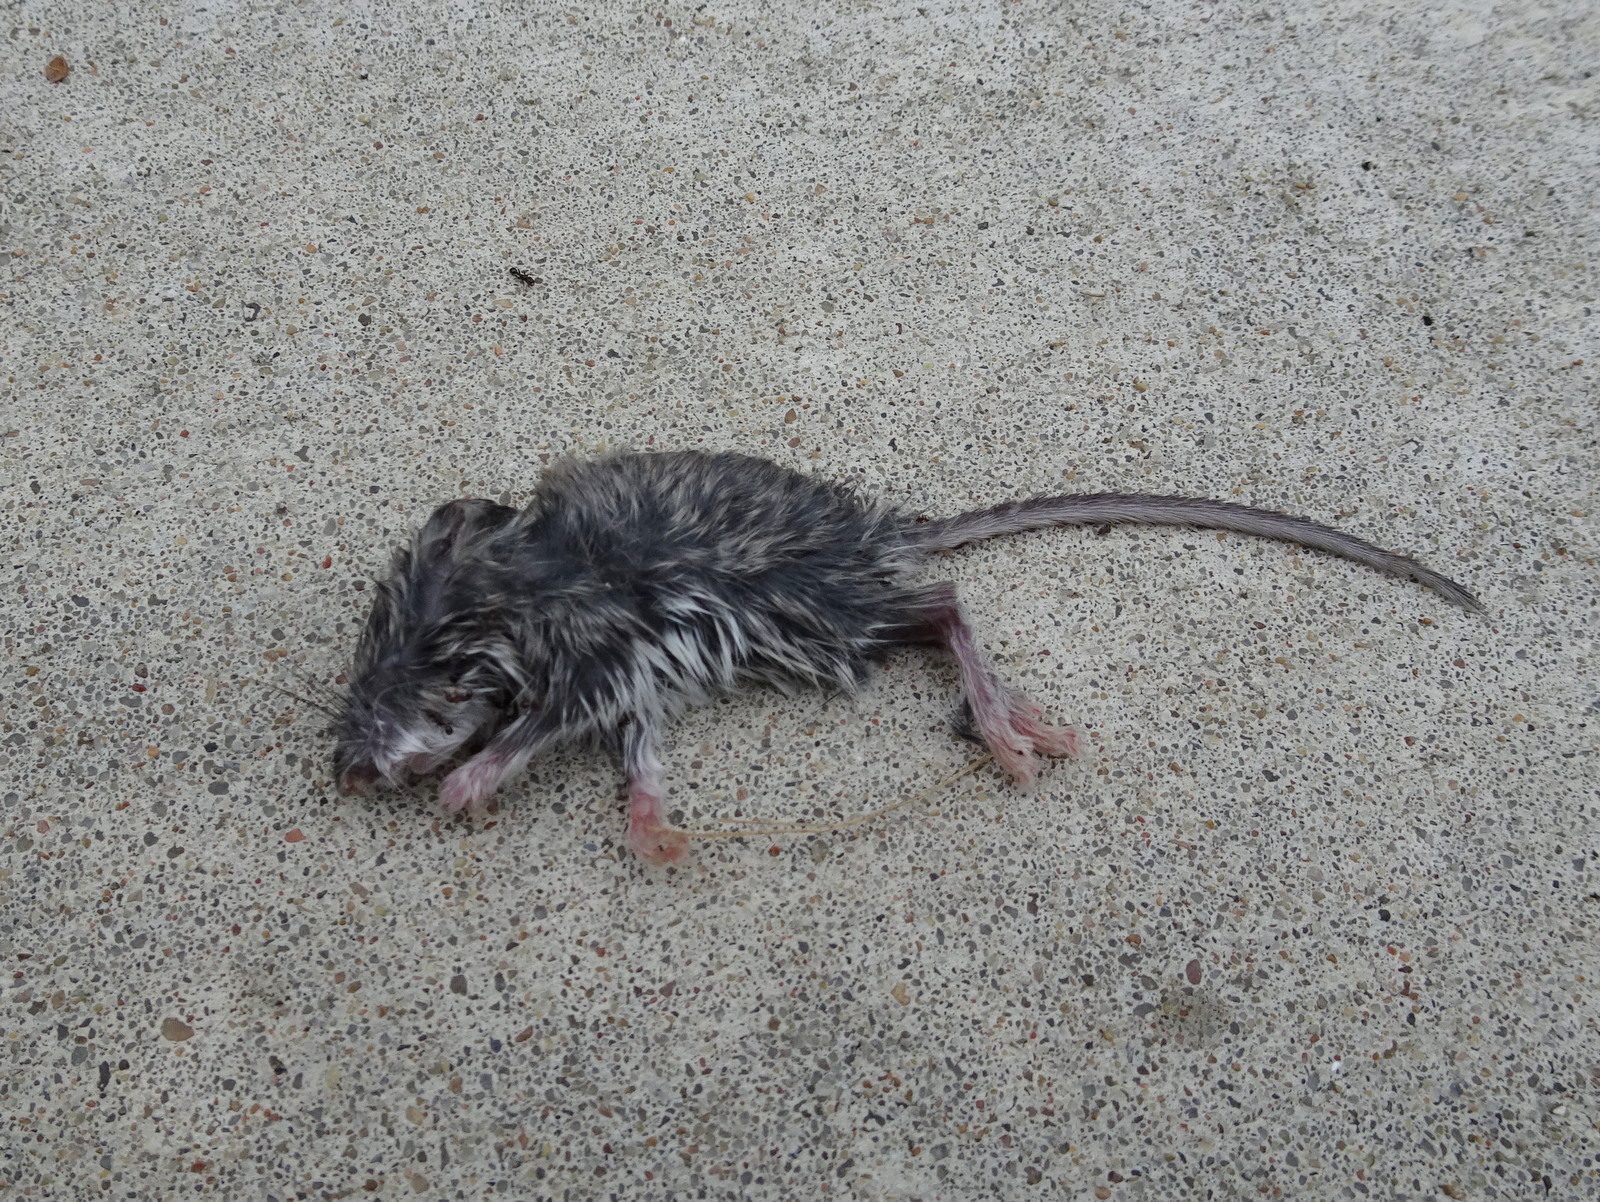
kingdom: Animalia
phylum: Chordata
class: Mammalia
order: Rodentia
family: Cricetidae
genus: Peromyscus
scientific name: Peromyscus leucopus
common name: White-footed deermouse
